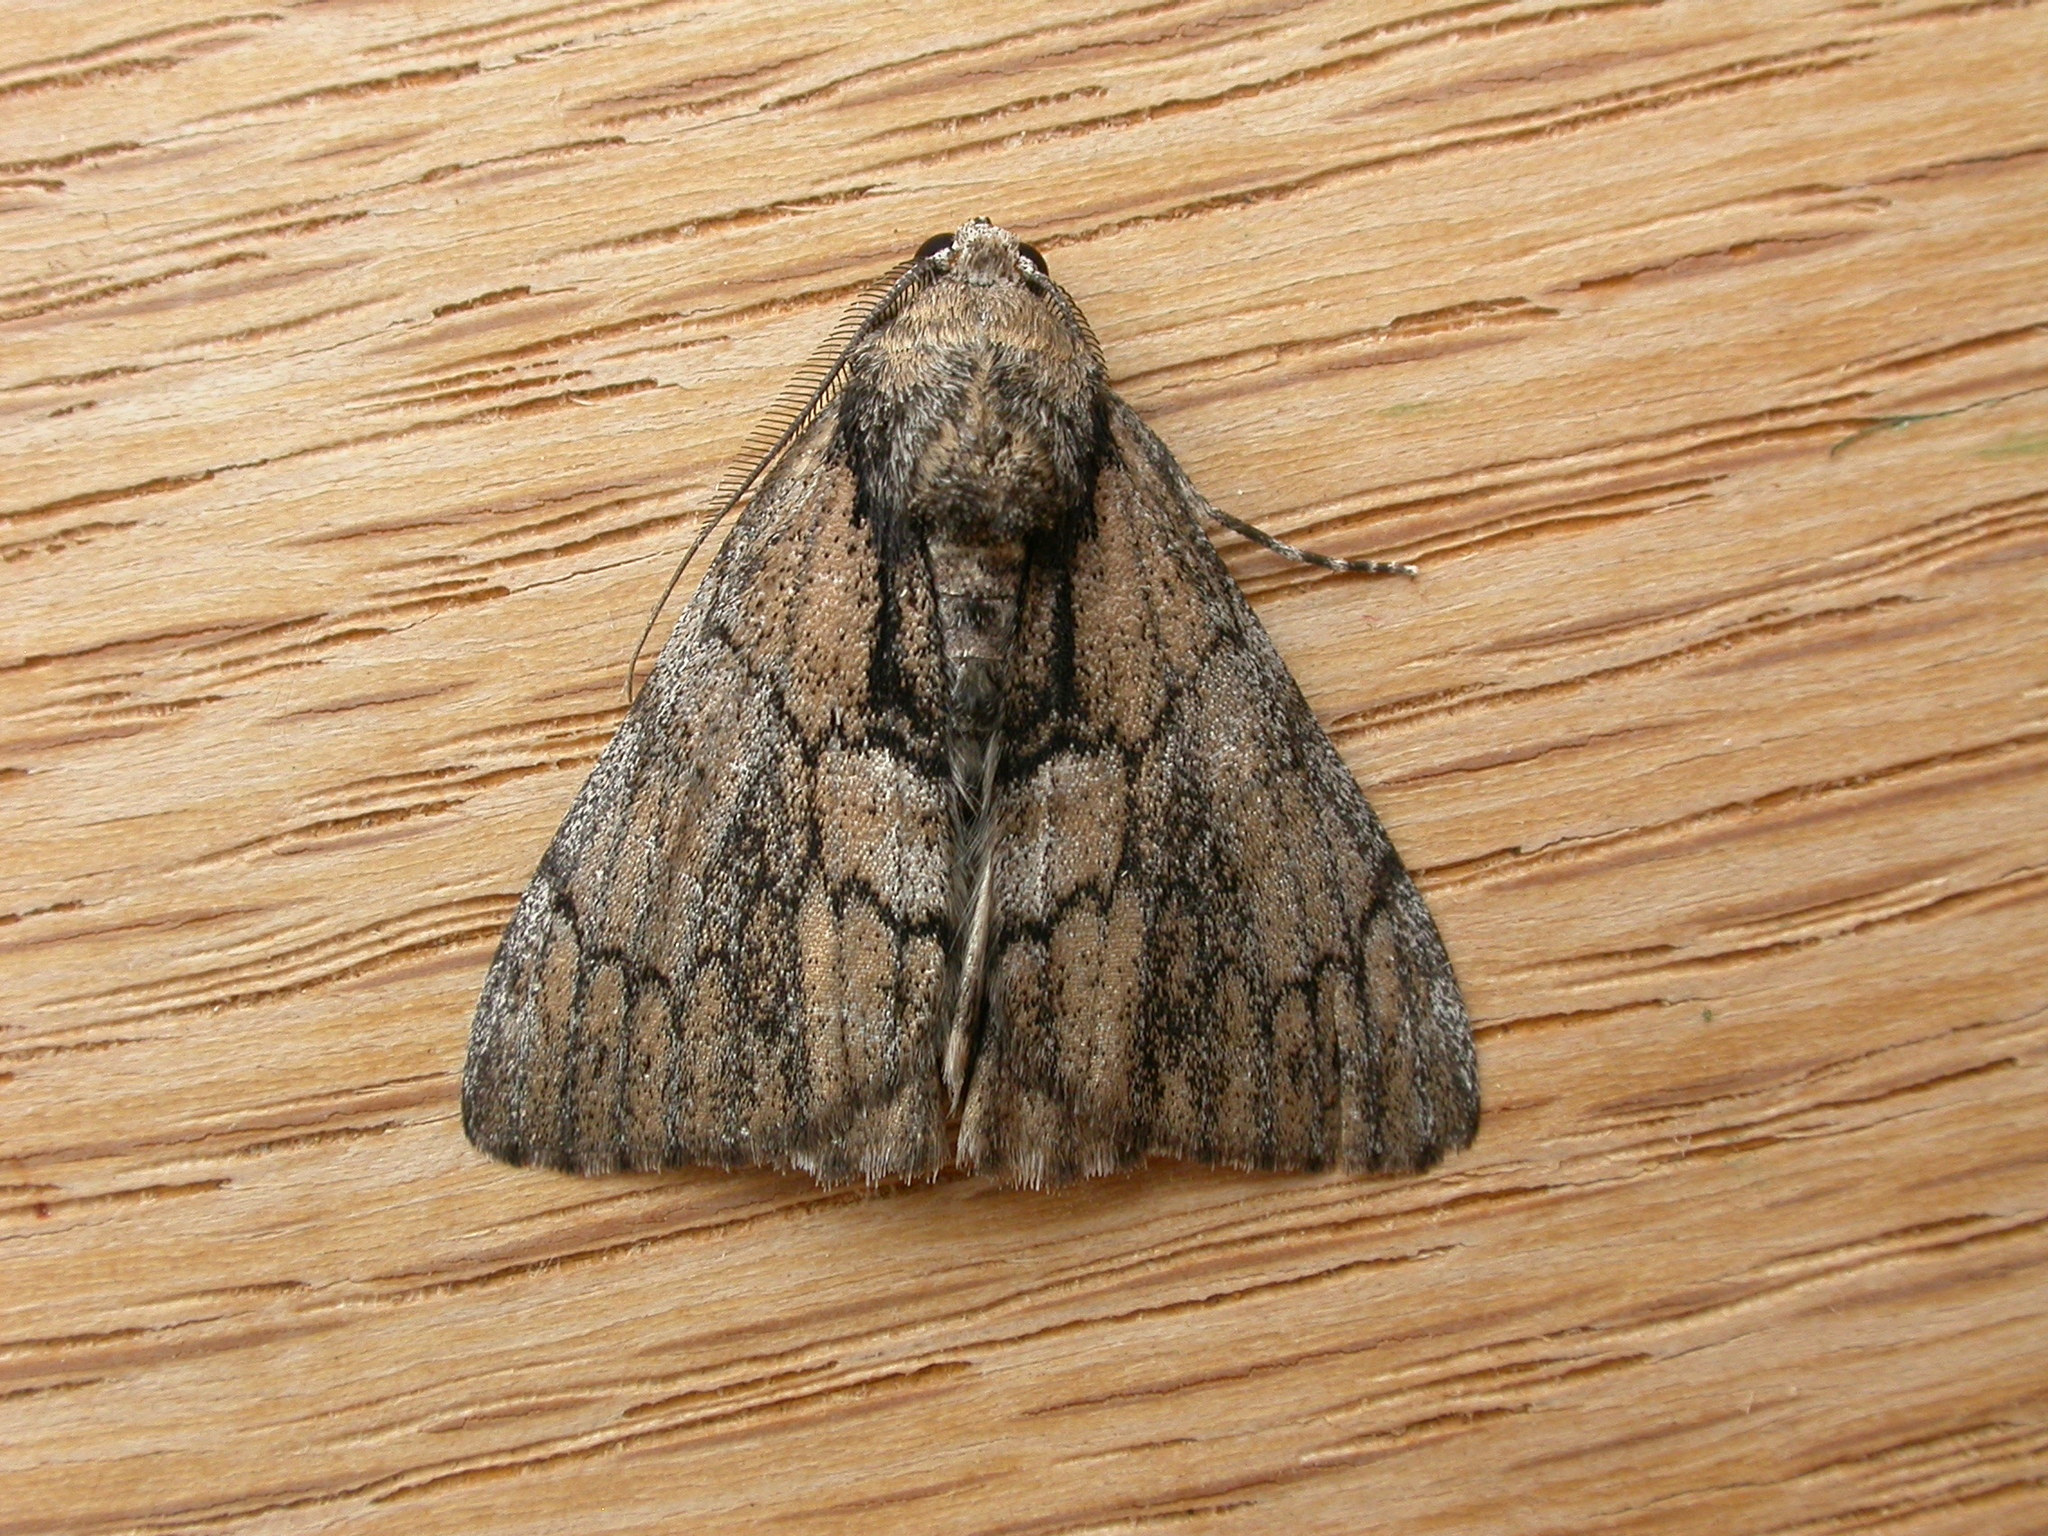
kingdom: Animalia
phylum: Arthropoda
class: Insecta
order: Lepidoptera
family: Geometridae
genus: Rhuma
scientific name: Rhuma argyraspis
